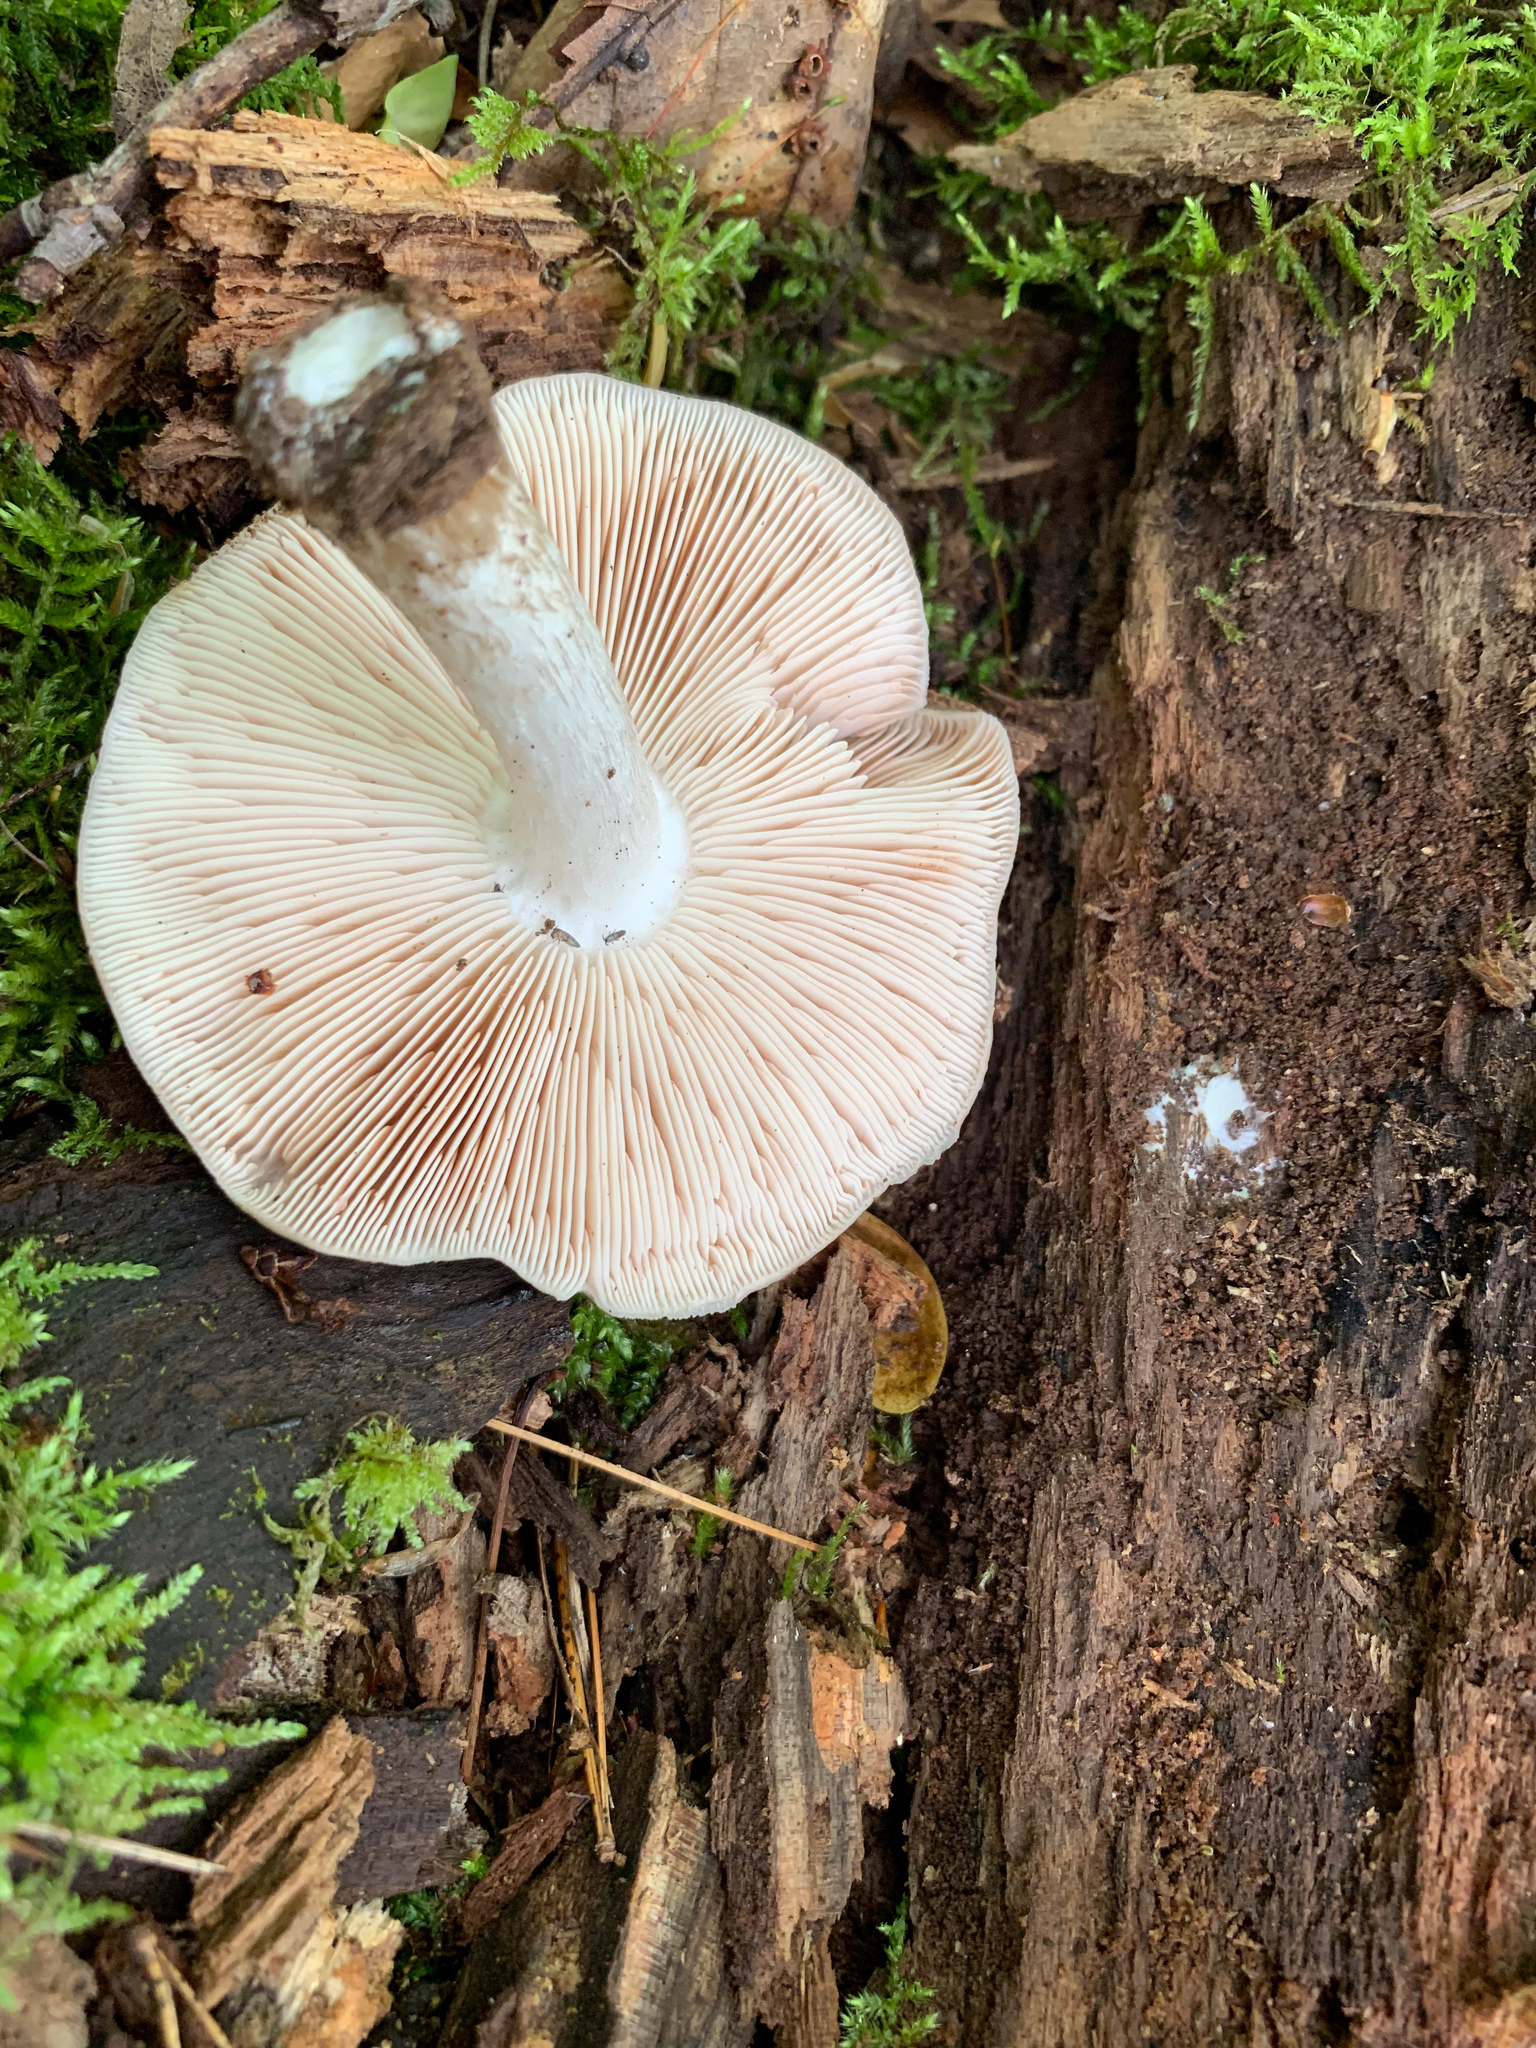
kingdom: Fungi
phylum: Basidiomycota
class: Agaricomycetes
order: Agaricales
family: Pluteaceae
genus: Pluteus
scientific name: Pluteus cervinus
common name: Deer shield
